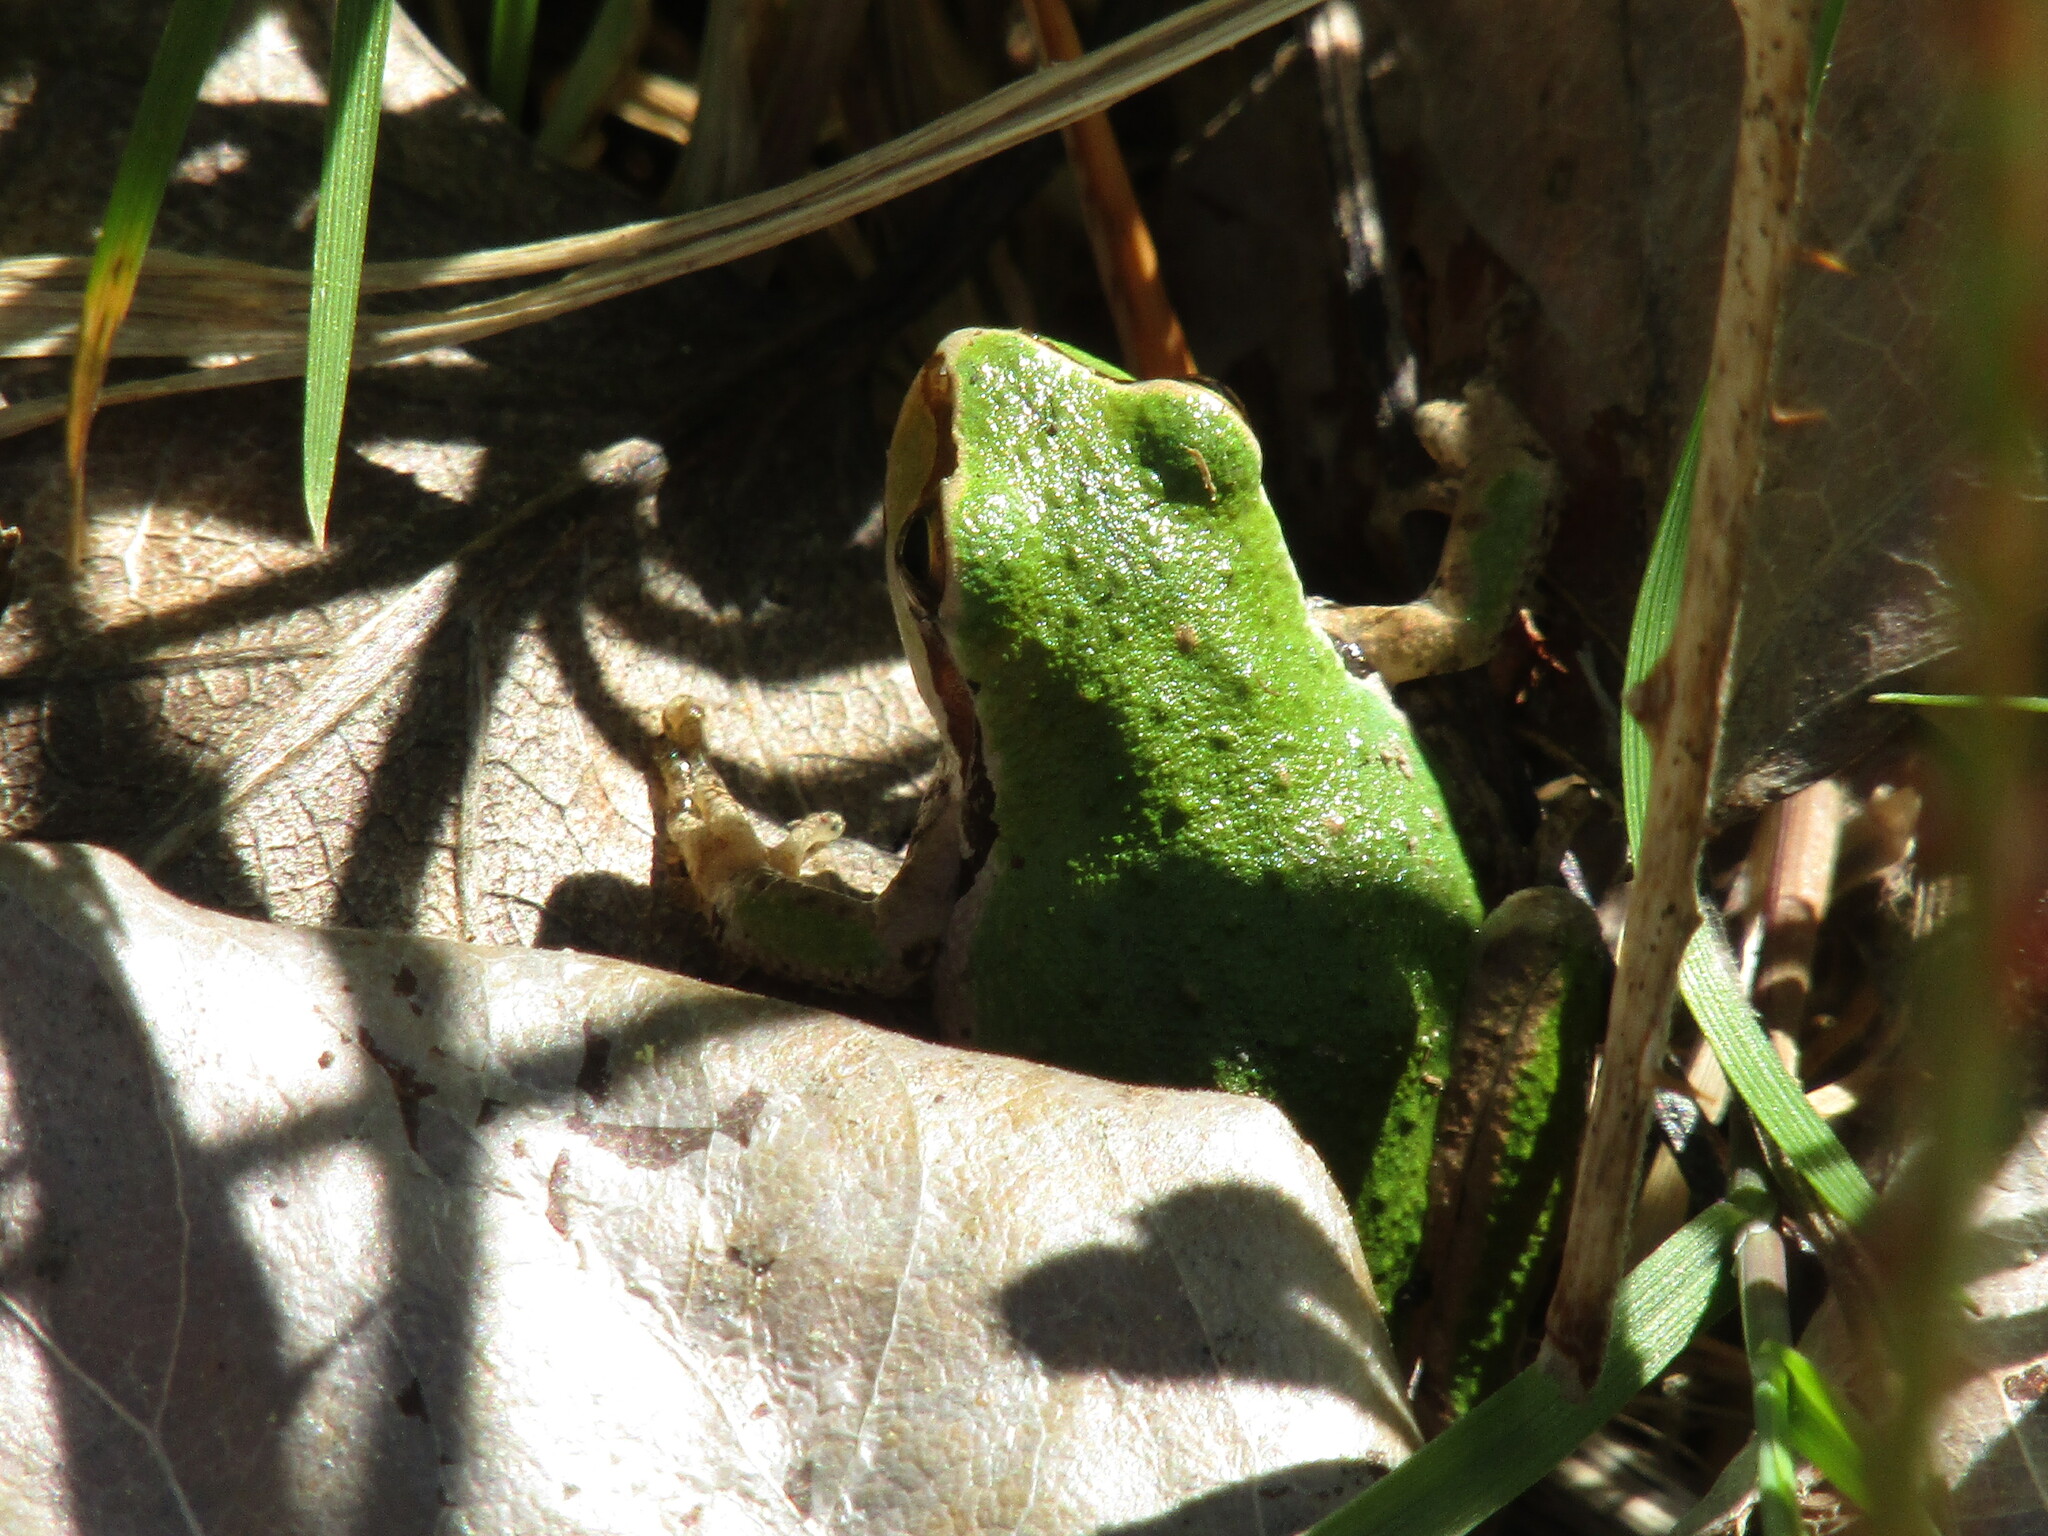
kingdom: Animalia
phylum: Chordata
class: Amphibia
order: Anura
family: Hylidae
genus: Pseudacris
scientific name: Pseudacris regilla
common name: Pacific chorus frog
